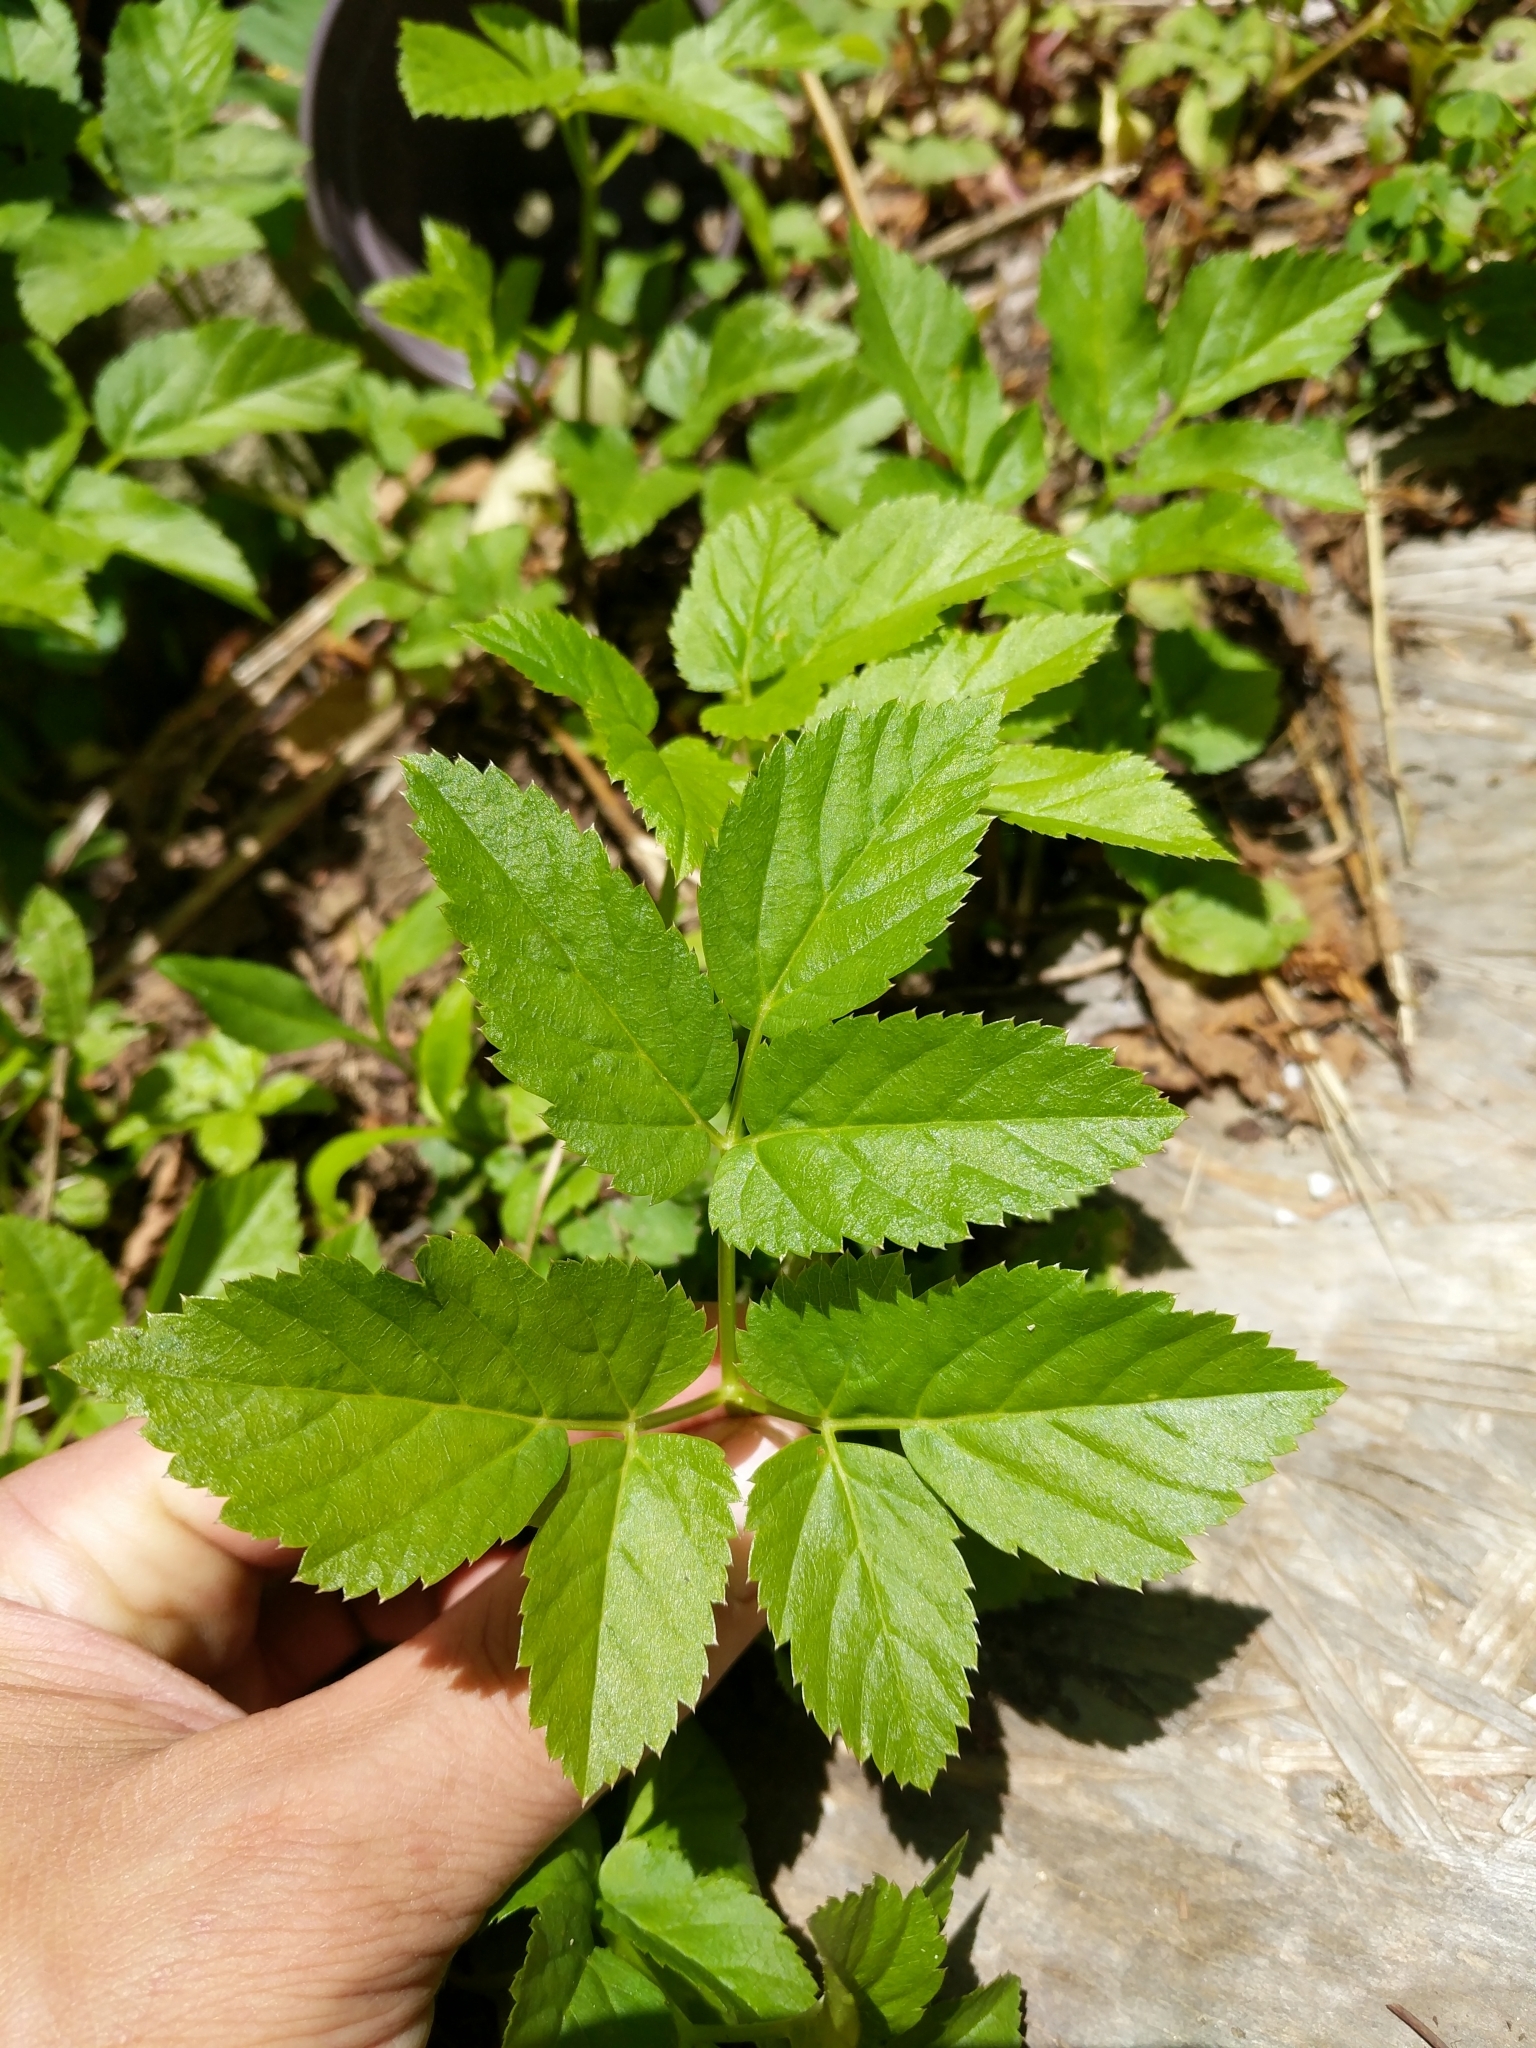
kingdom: Plantae
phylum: Tracheophyta
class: Magnoliopsida
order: Apiales
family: Apiaceae
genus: Aegopodium
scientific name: Aegopodium podagraria
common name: Ground-elder
